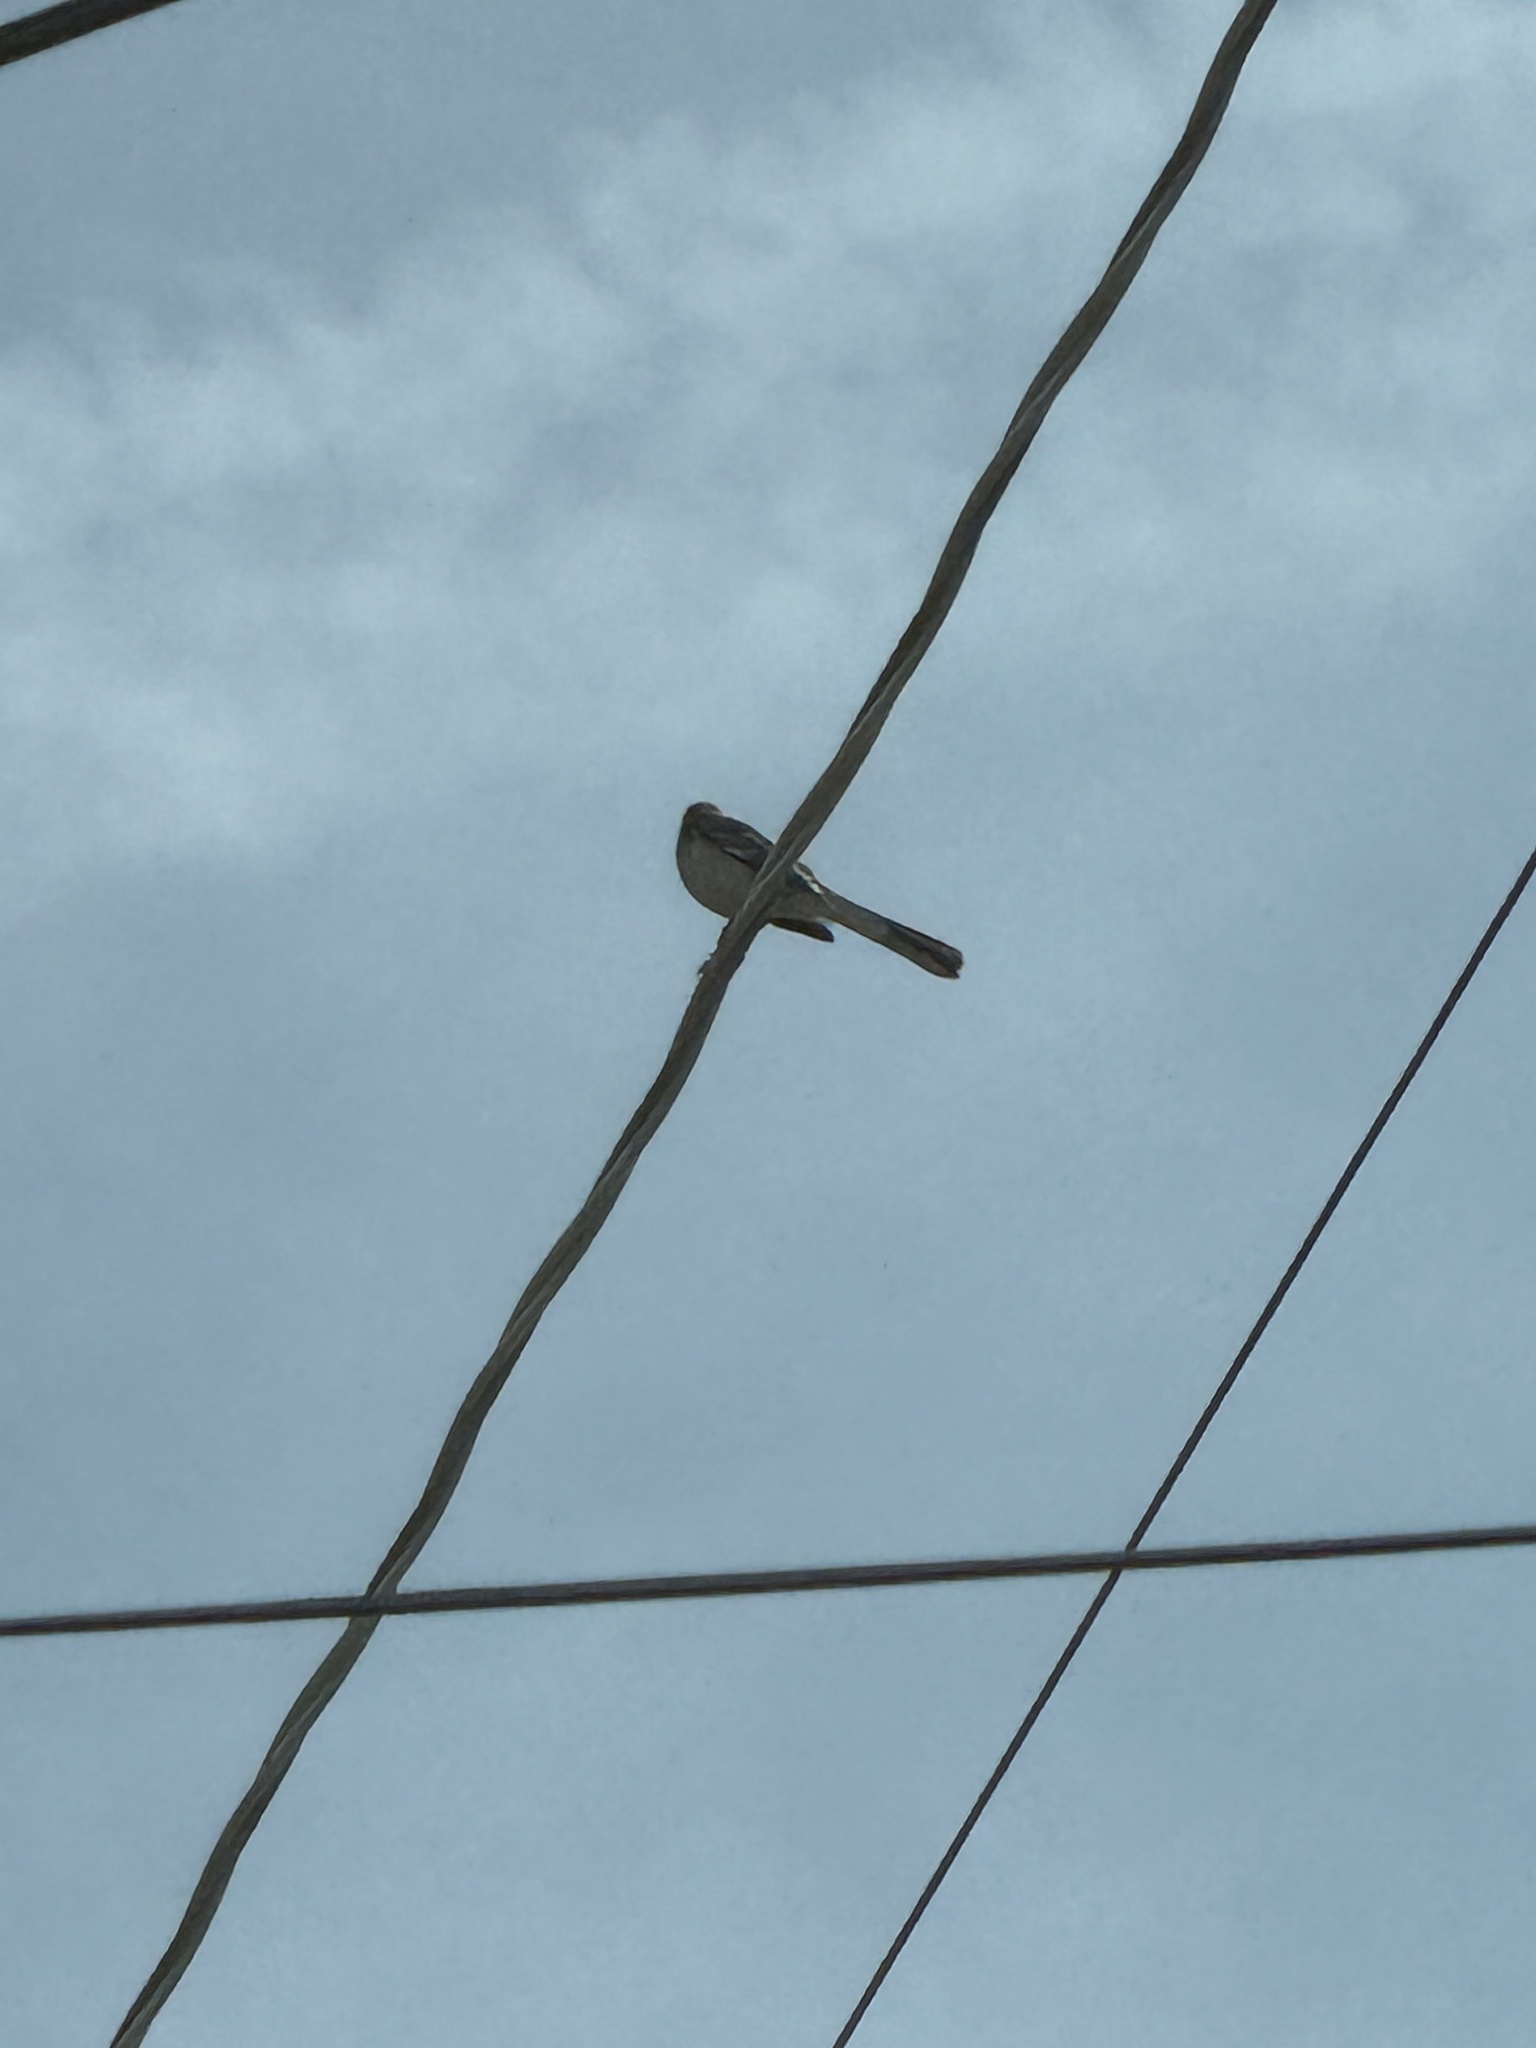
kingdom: Animalia
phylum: Chordata
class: Aves
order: Passeriformes
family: Mimidae
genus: Mimus
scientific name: Mimus polyglottos
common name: Northern mockingbird
